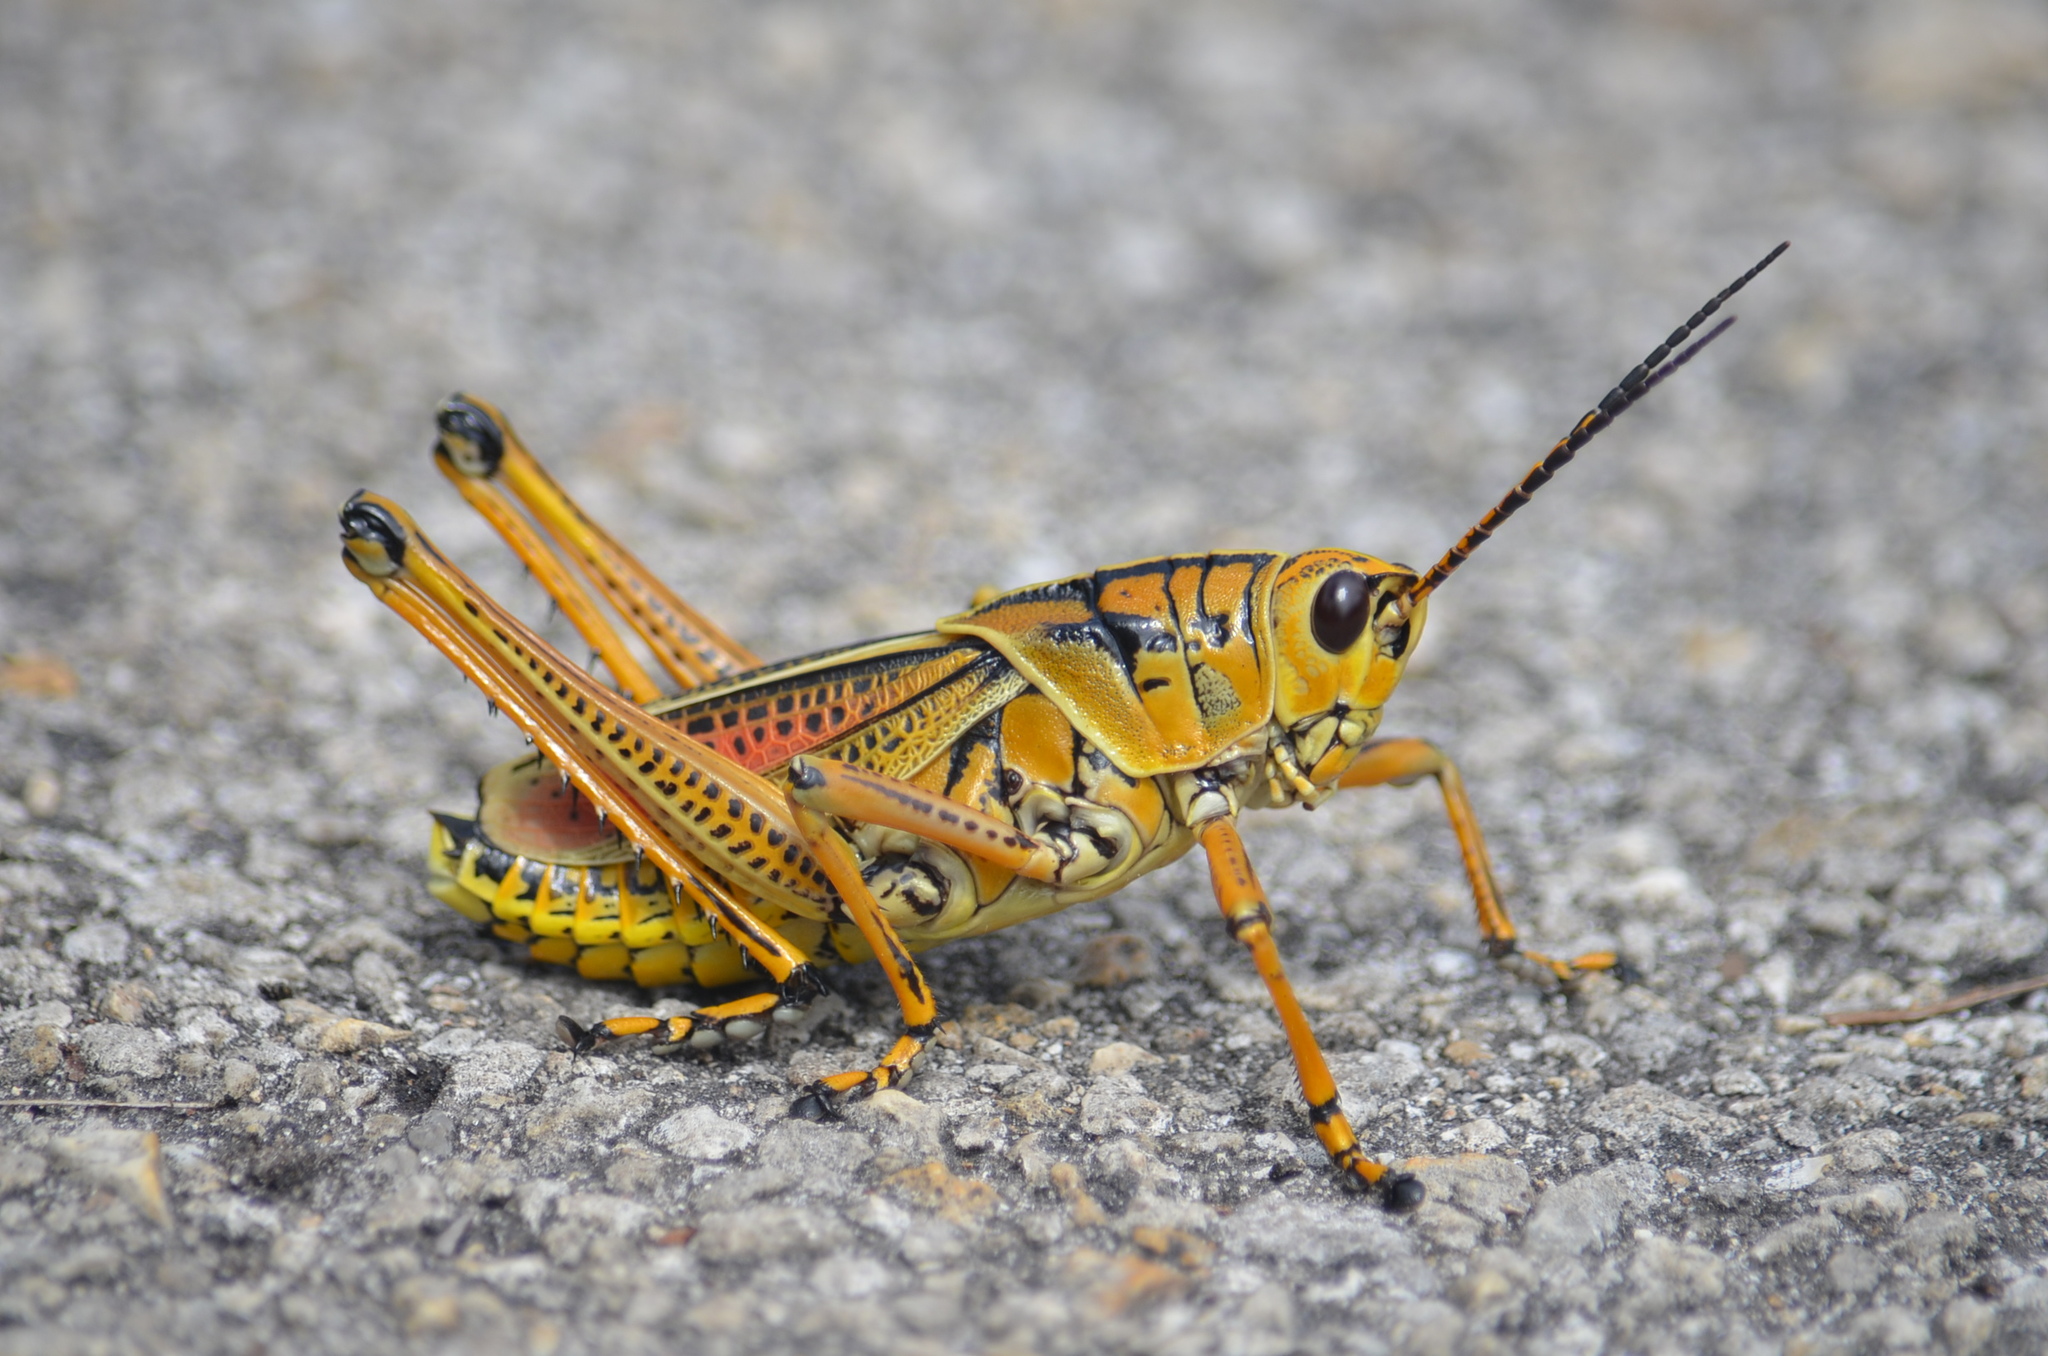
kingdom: Animalia
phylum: Arthropoda
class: Insecta
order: Orthoptera
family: Romaleidae
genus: Romalea
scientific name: Romalea microptera
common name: Eastern lubber grasshopper
